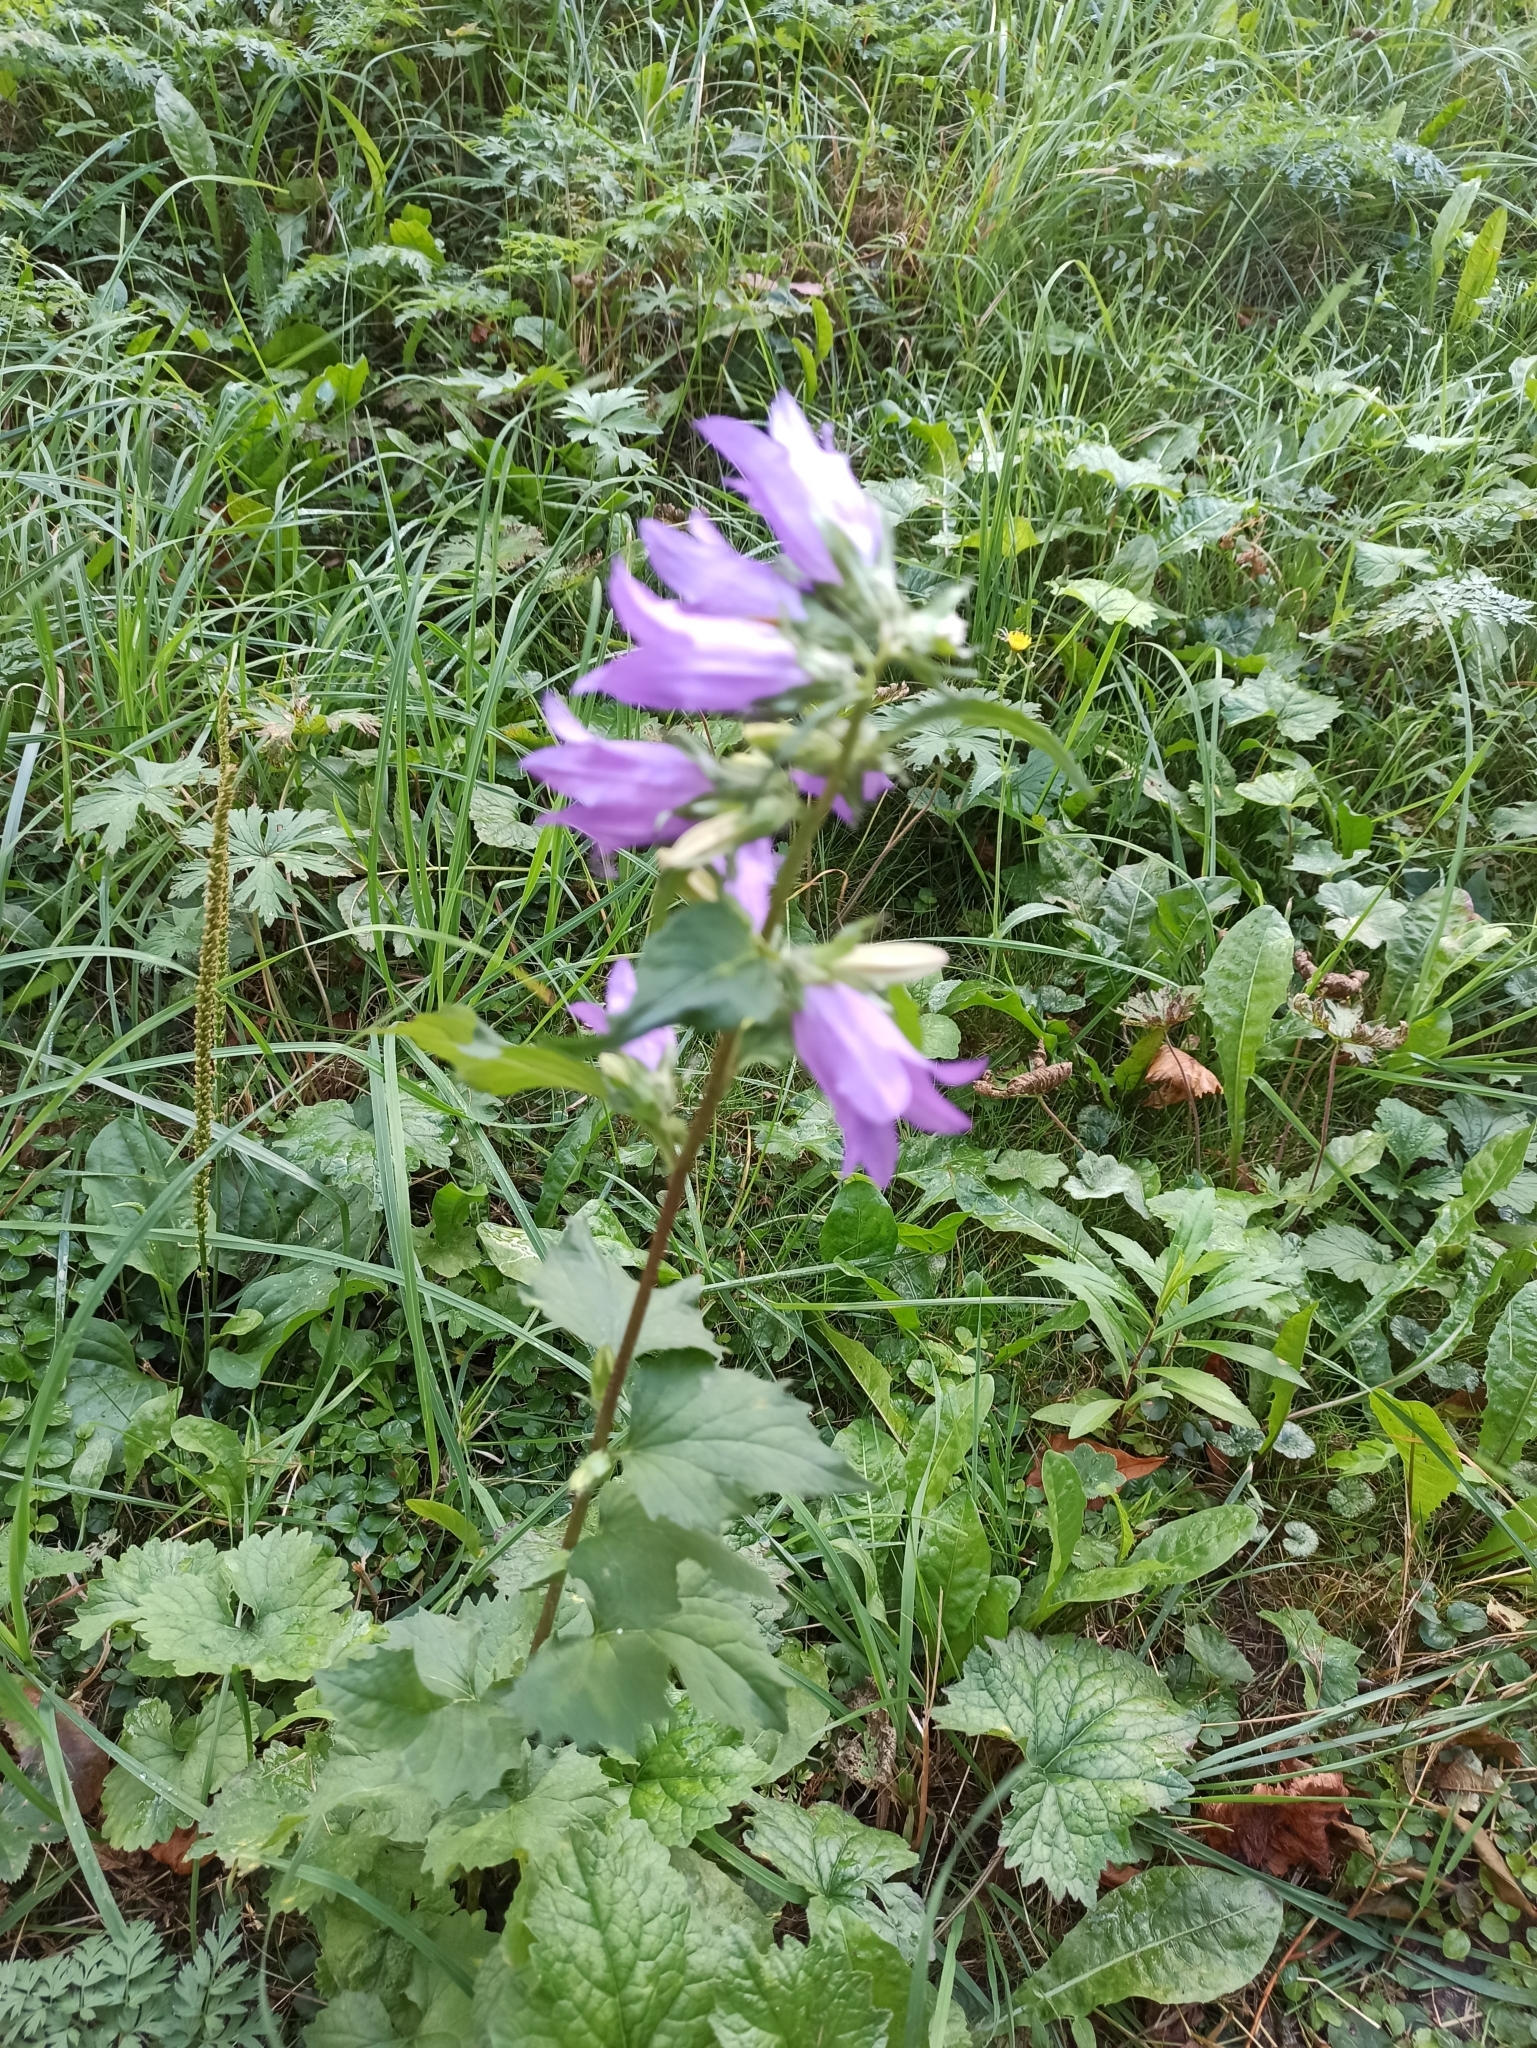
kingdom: Plantae
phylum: Tracheophyta
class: Magnoliopsida
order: Asterales
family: Campanulaceae
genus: Campanula
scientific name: Campanula trachelium
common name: Nettle-leaved bellflower
